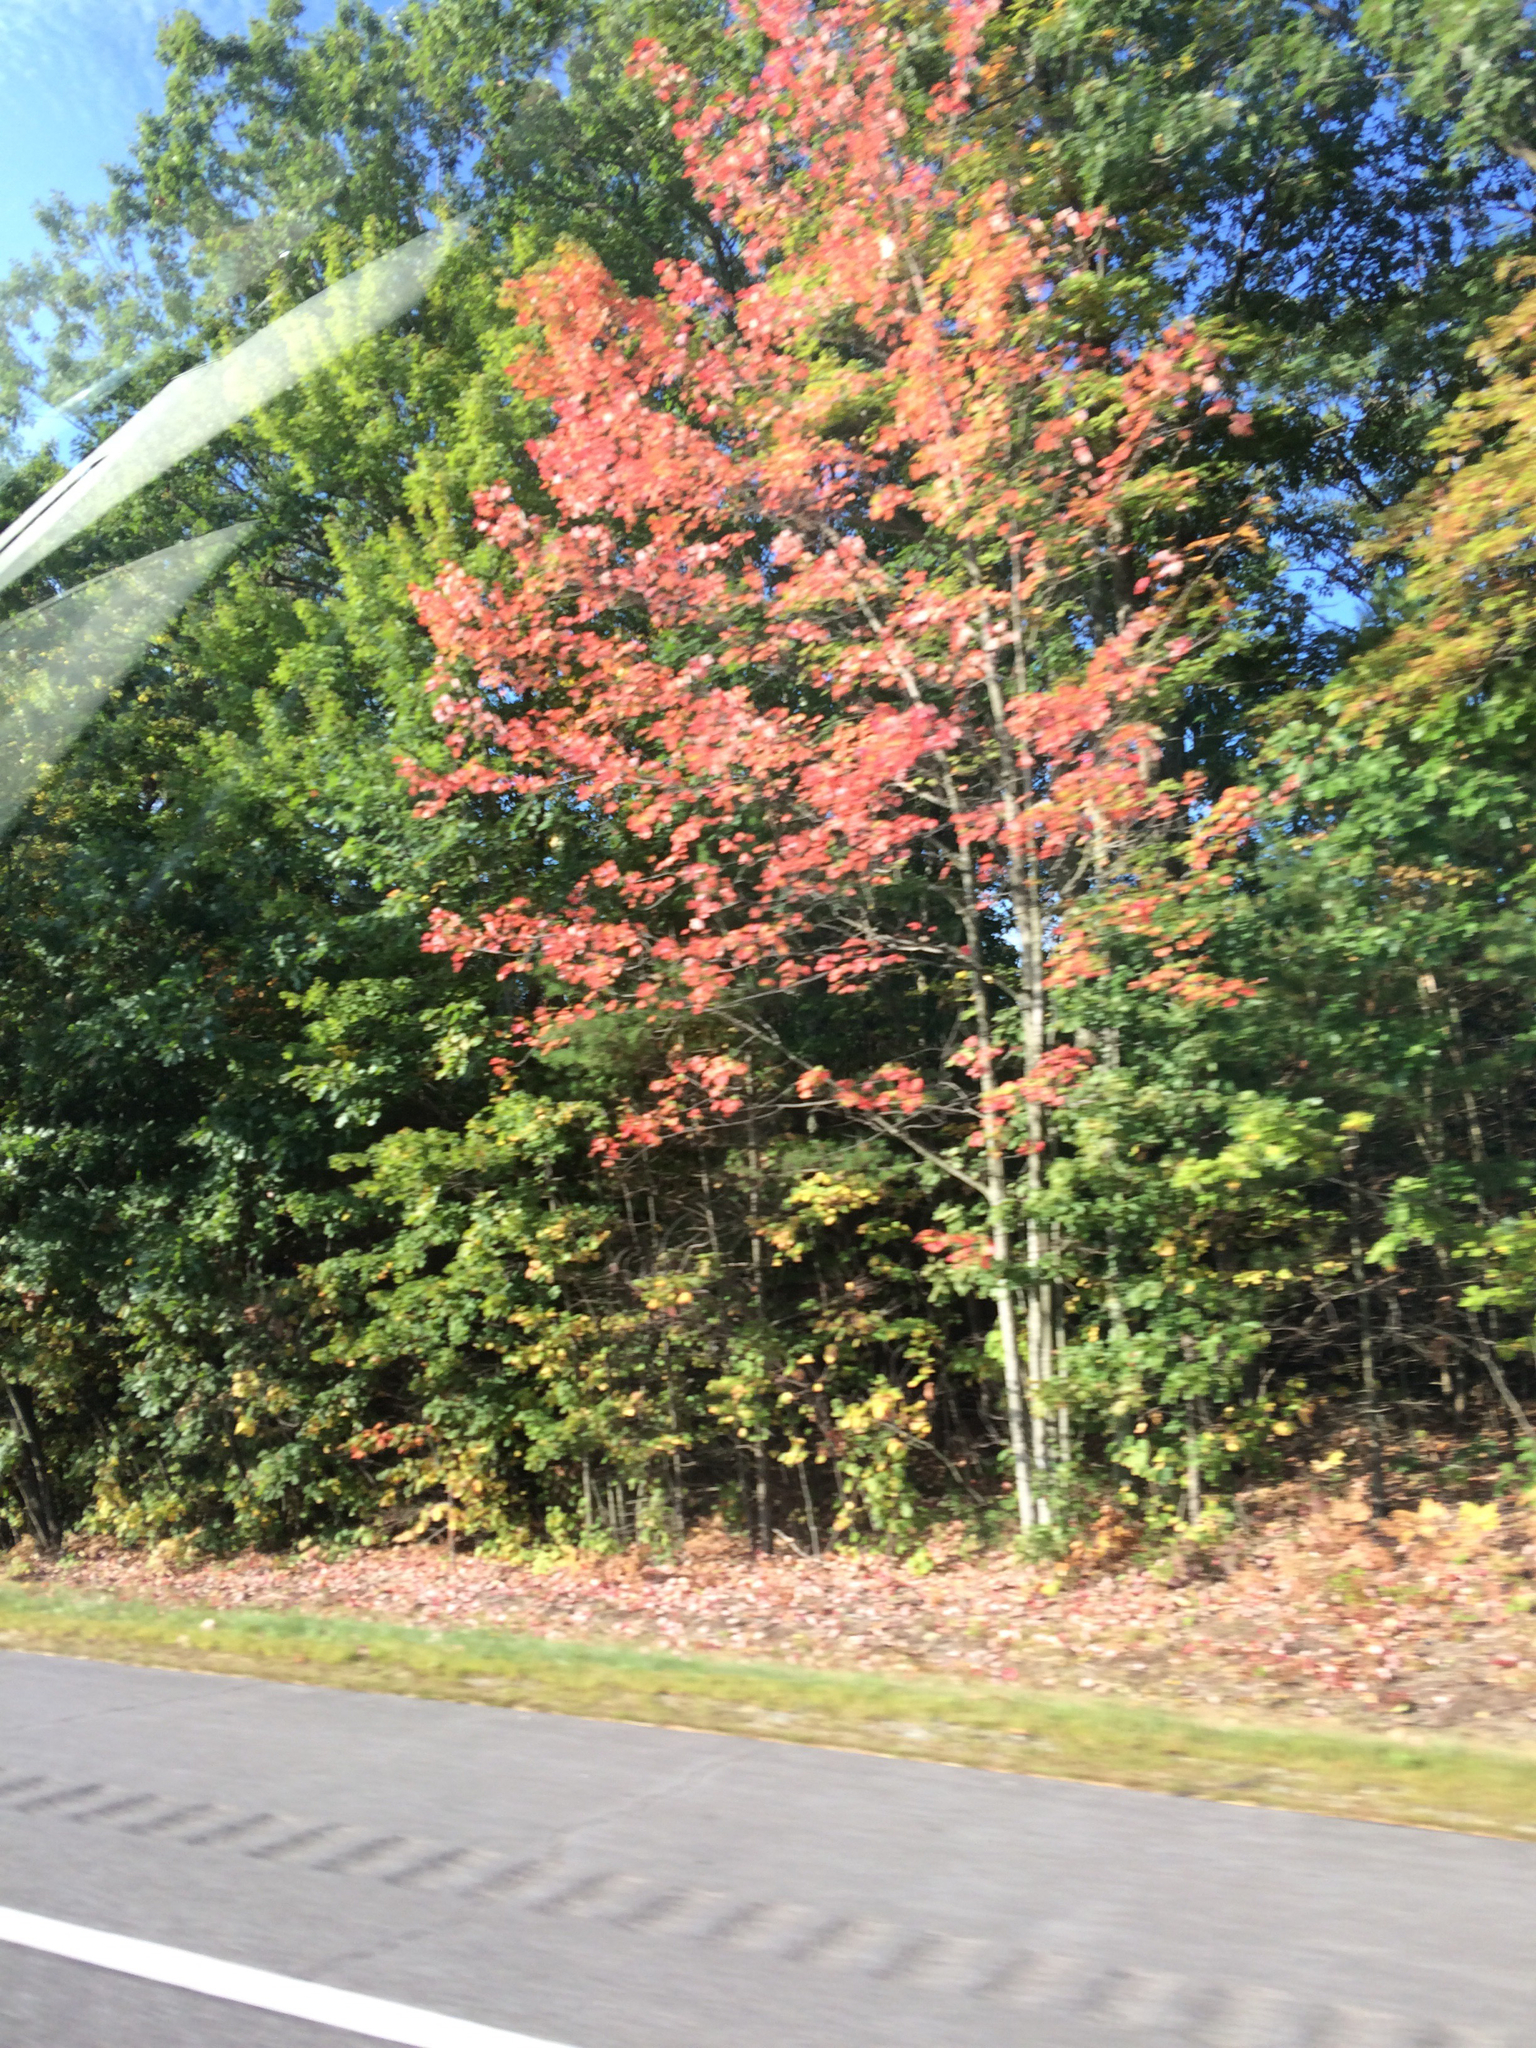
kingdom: Plantae
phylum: Tracheophyta
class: Magnoliopsida
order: Sapindales
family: Sapindaceae
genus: Acer
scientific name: Acer rubrum
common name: Red maple
